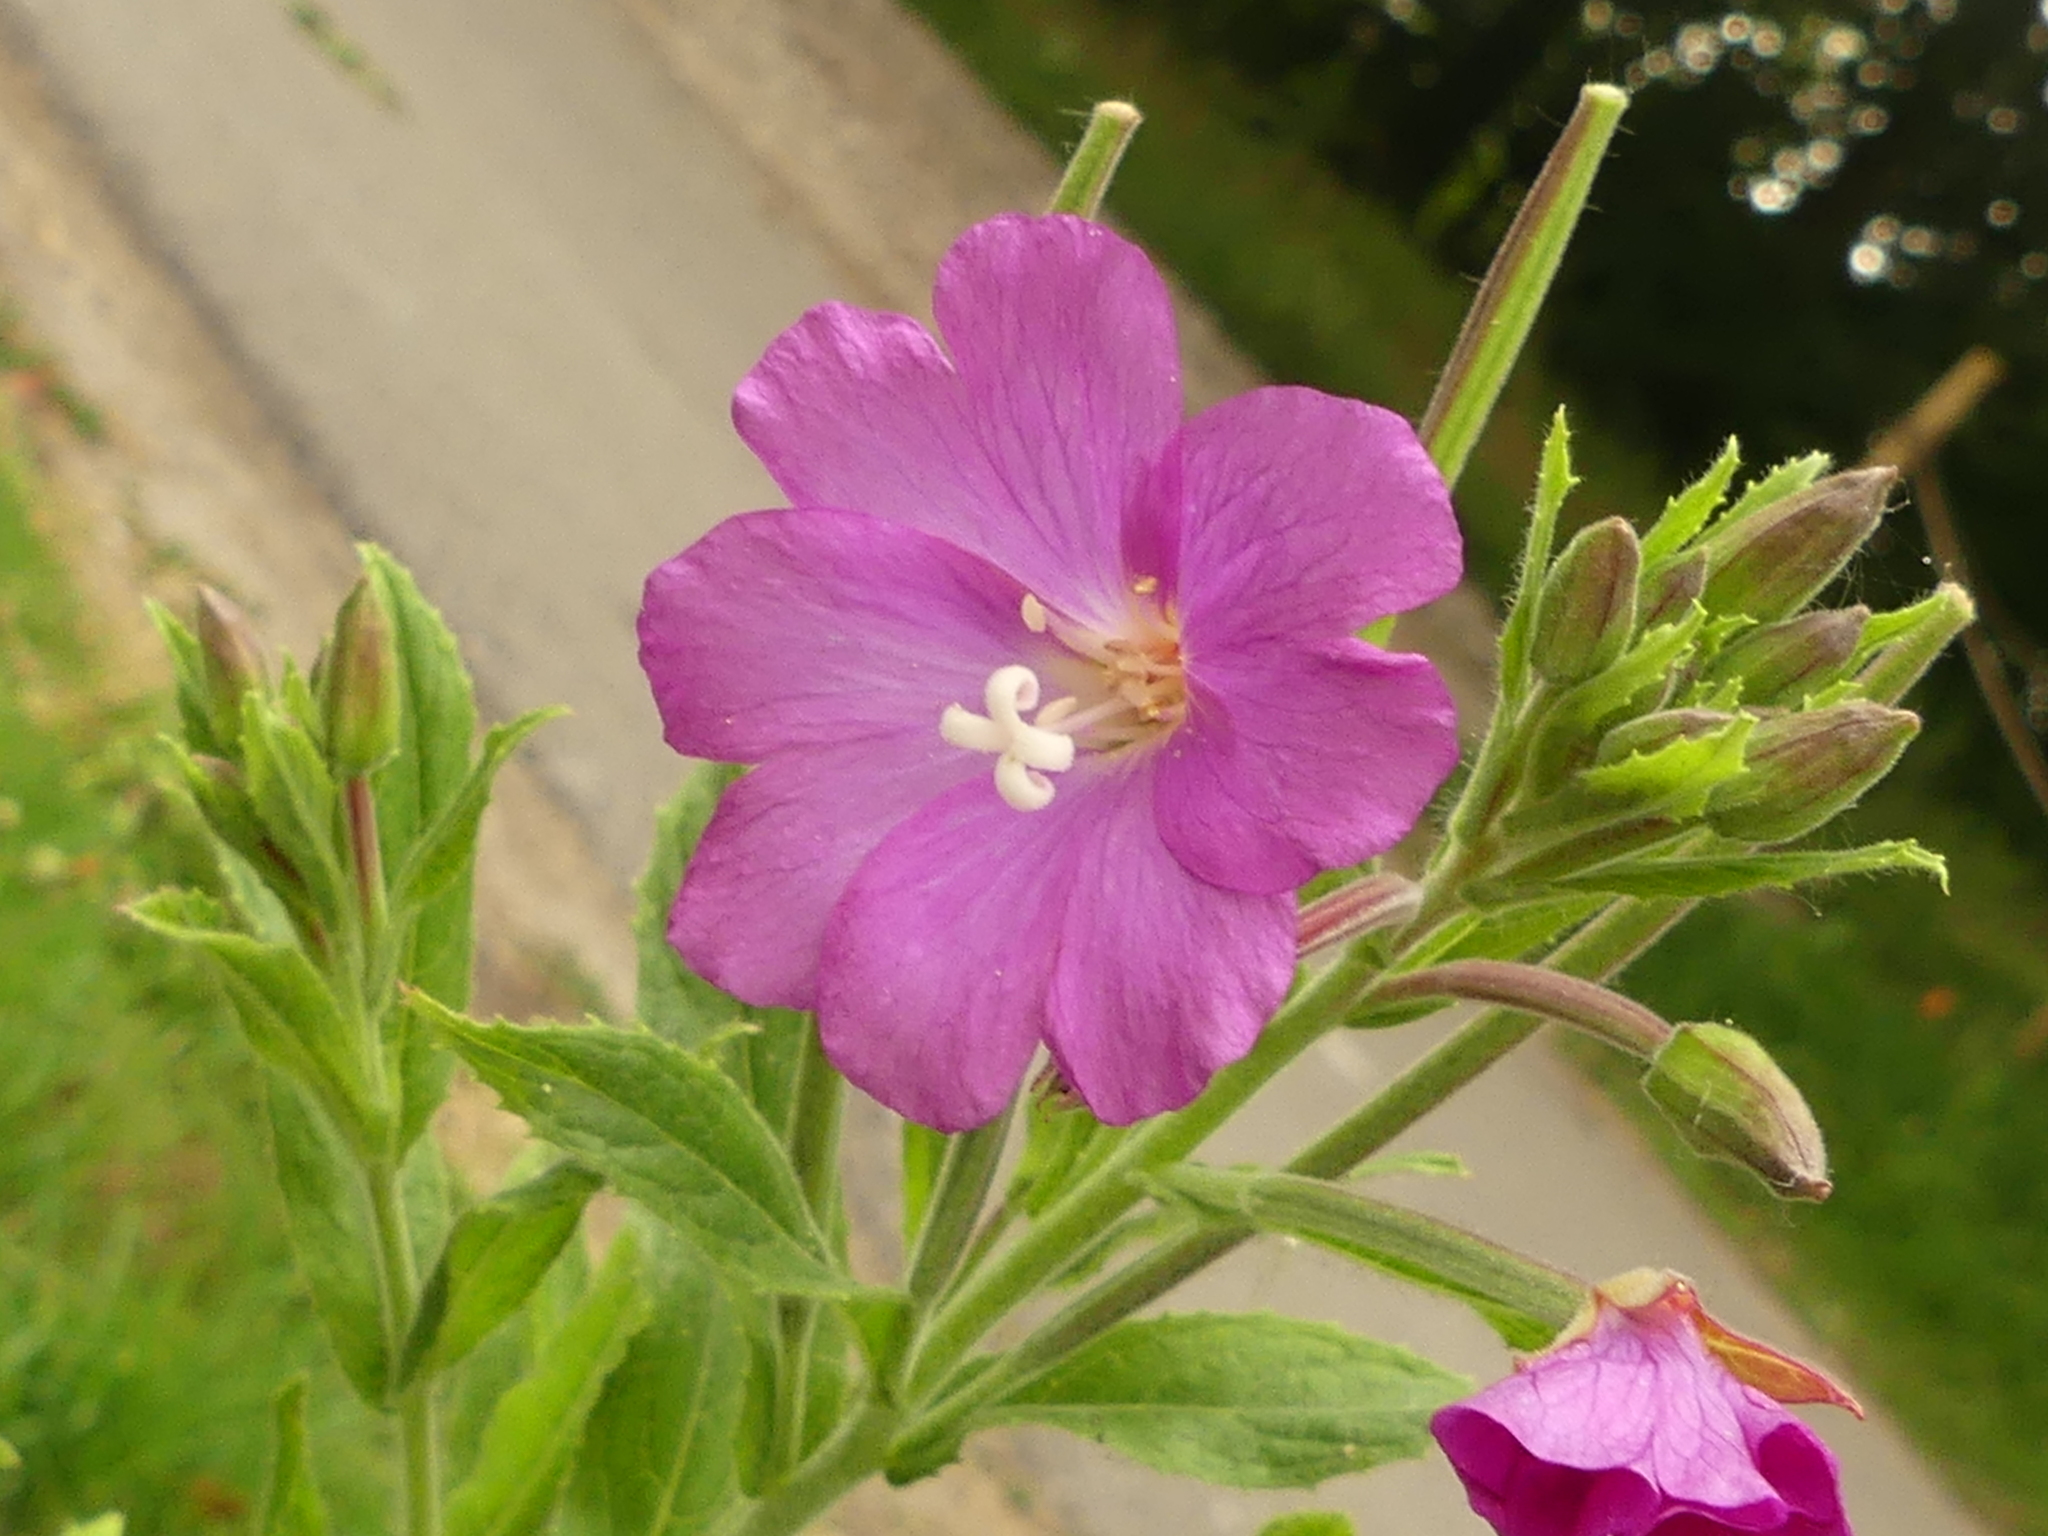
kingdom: Plantae
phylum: Tracheophyta
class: Magnoliopsida
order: Myrtales
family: Onagraceae
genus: Epilobium
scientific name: Epilobium hirsutum
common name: Great willowherb
